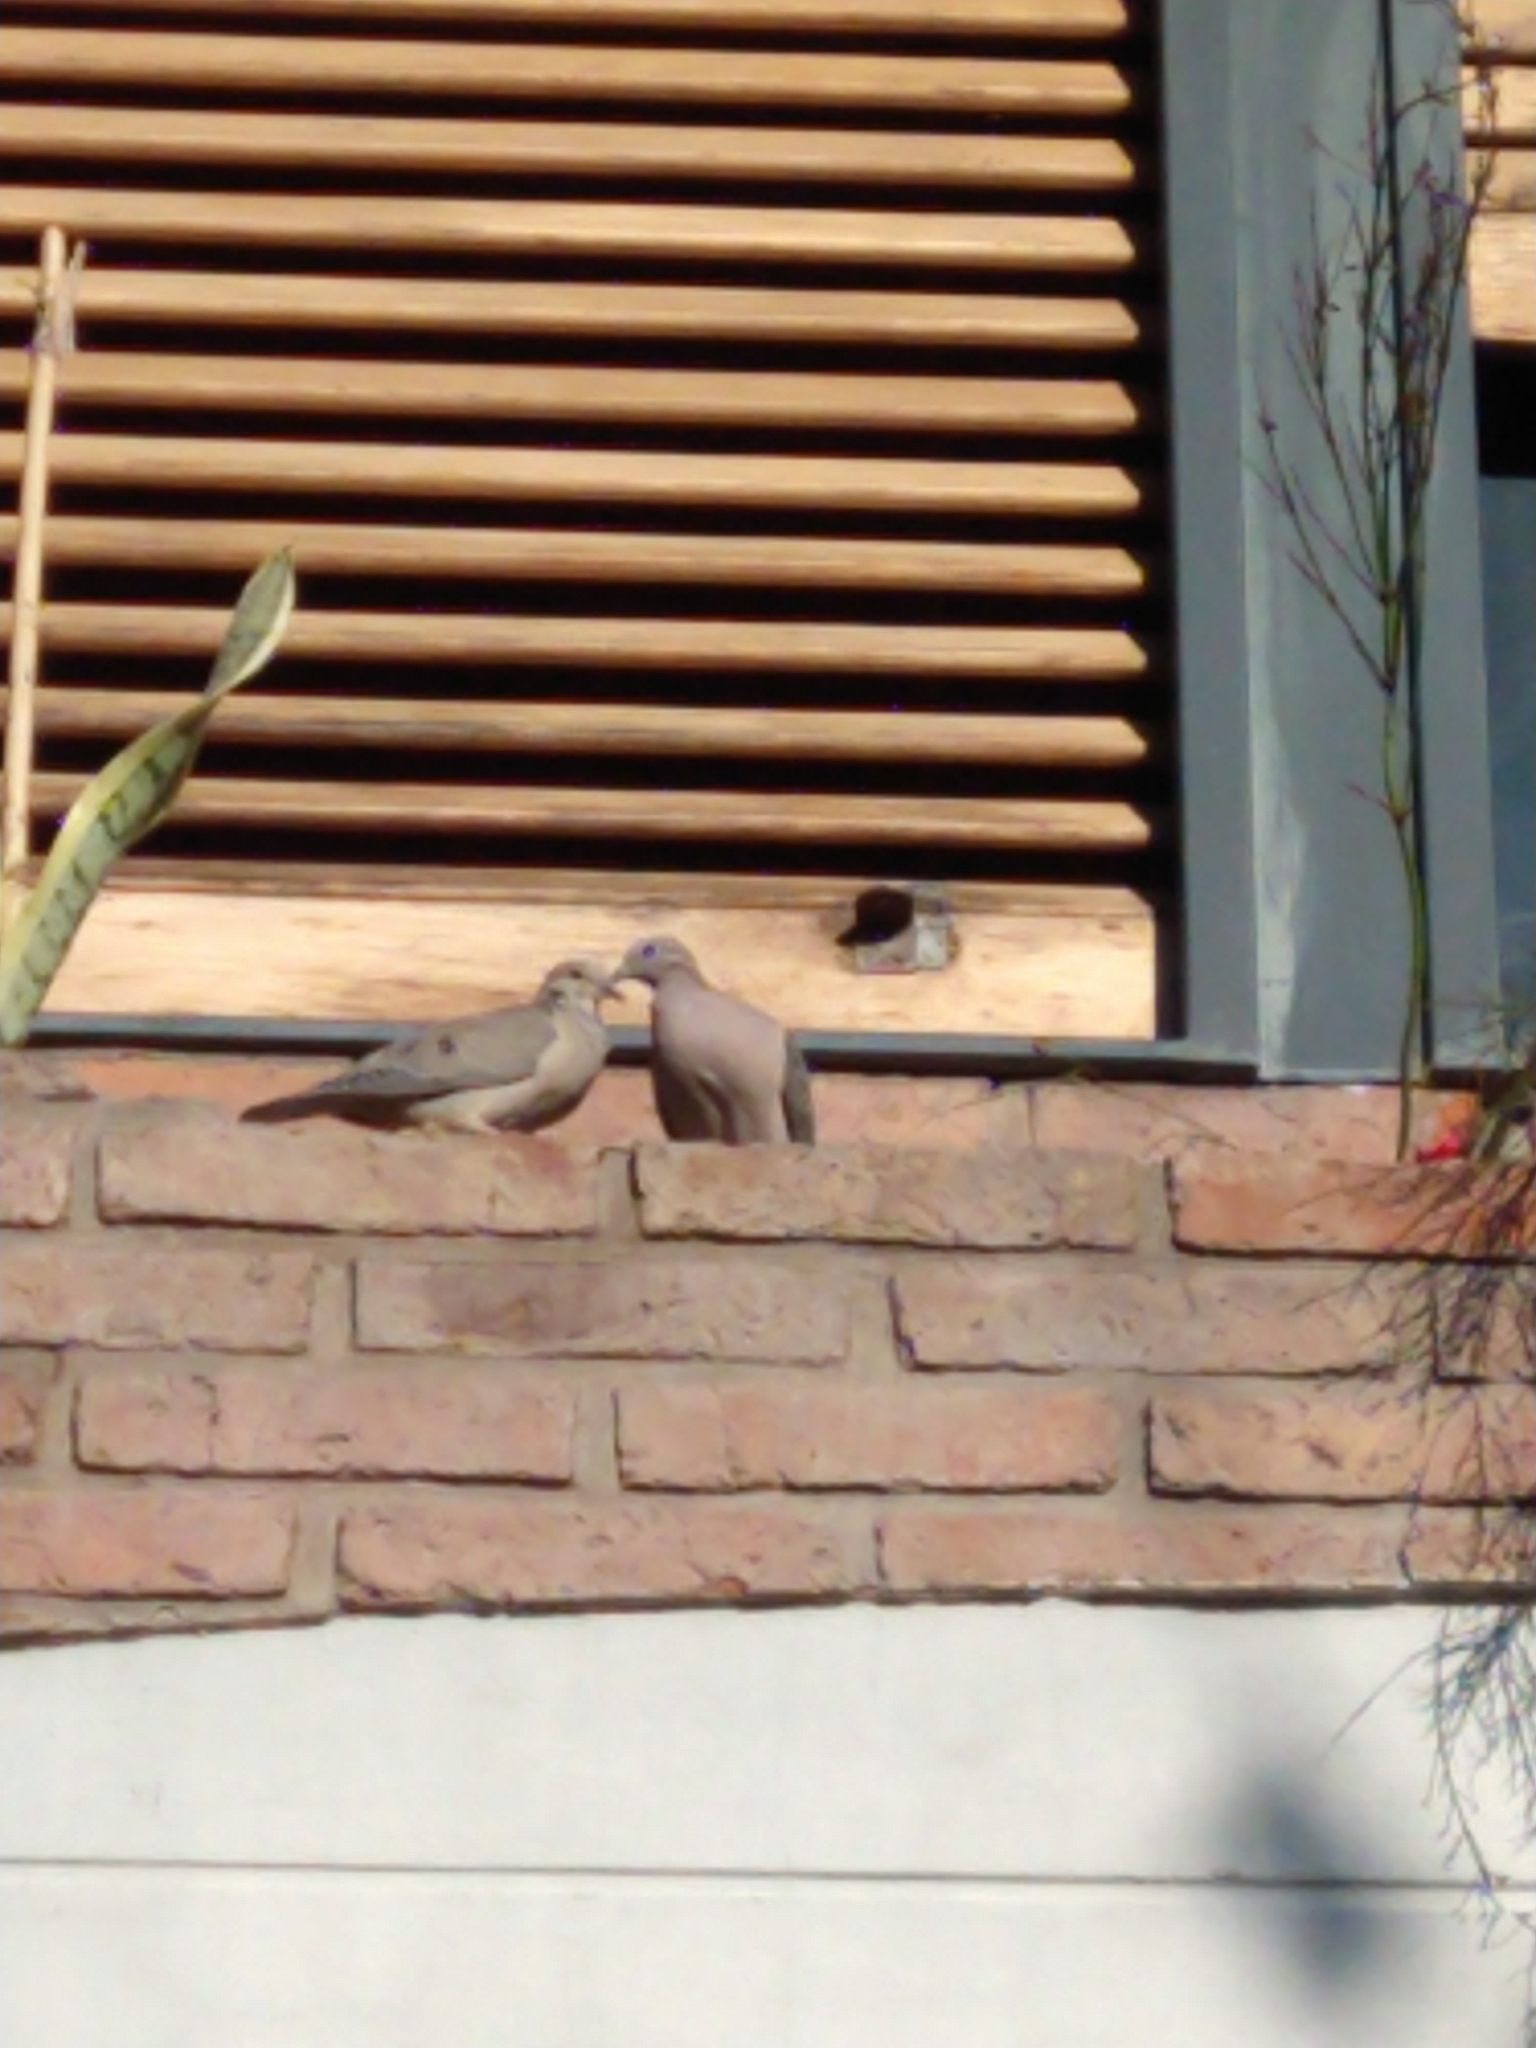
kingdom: Animalia
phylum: Chordata
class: Aves
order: Columbiformes
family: Columbidae
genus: Zenaida
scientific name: Zenaida auriculata
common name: Eared dove
